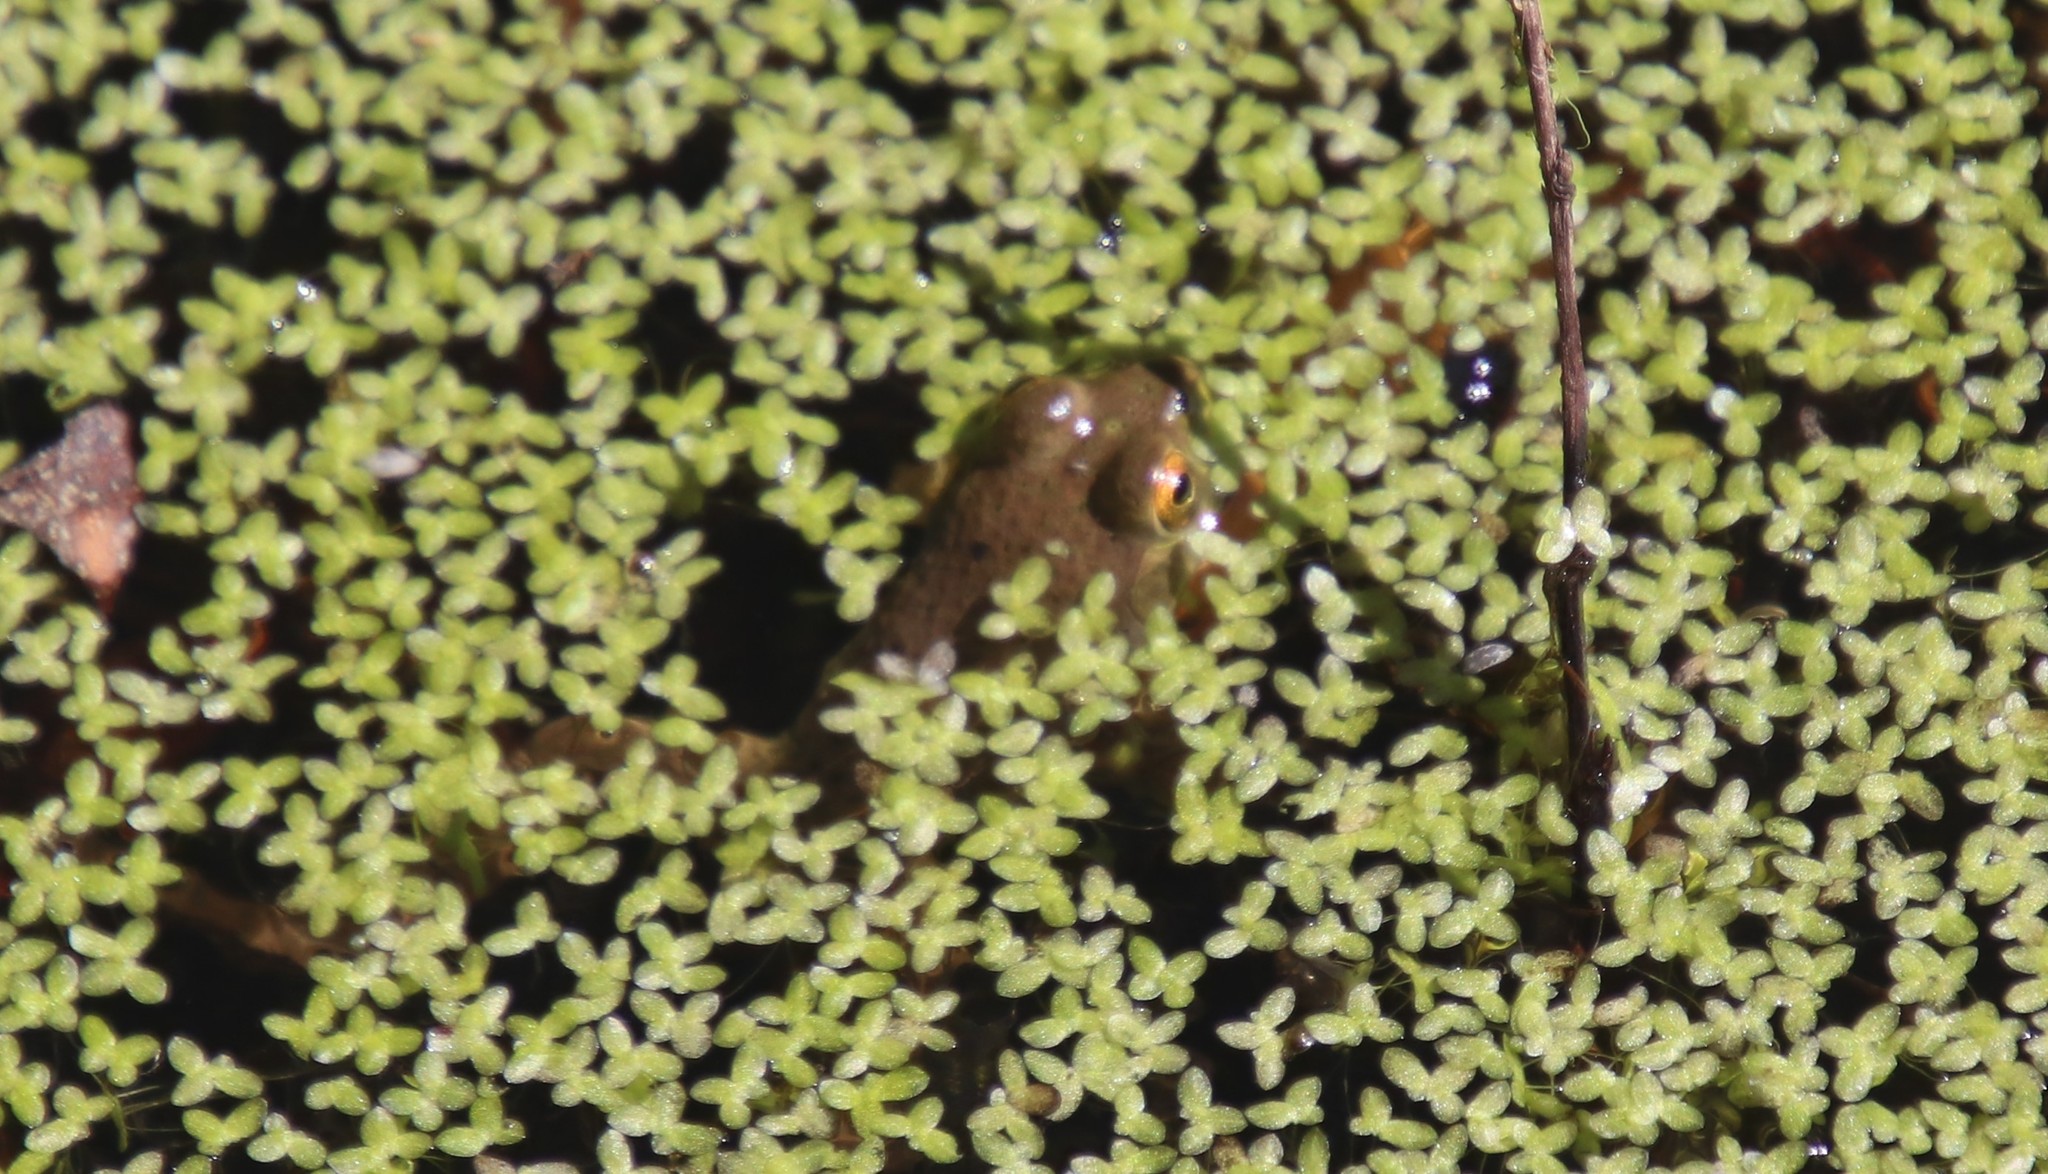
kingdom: Animalia
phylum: Chordata
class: Amphibia
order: Anura
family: Ranidae
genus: Lithobates
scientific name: Lithobates catesbeianus
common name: American bullfrog
